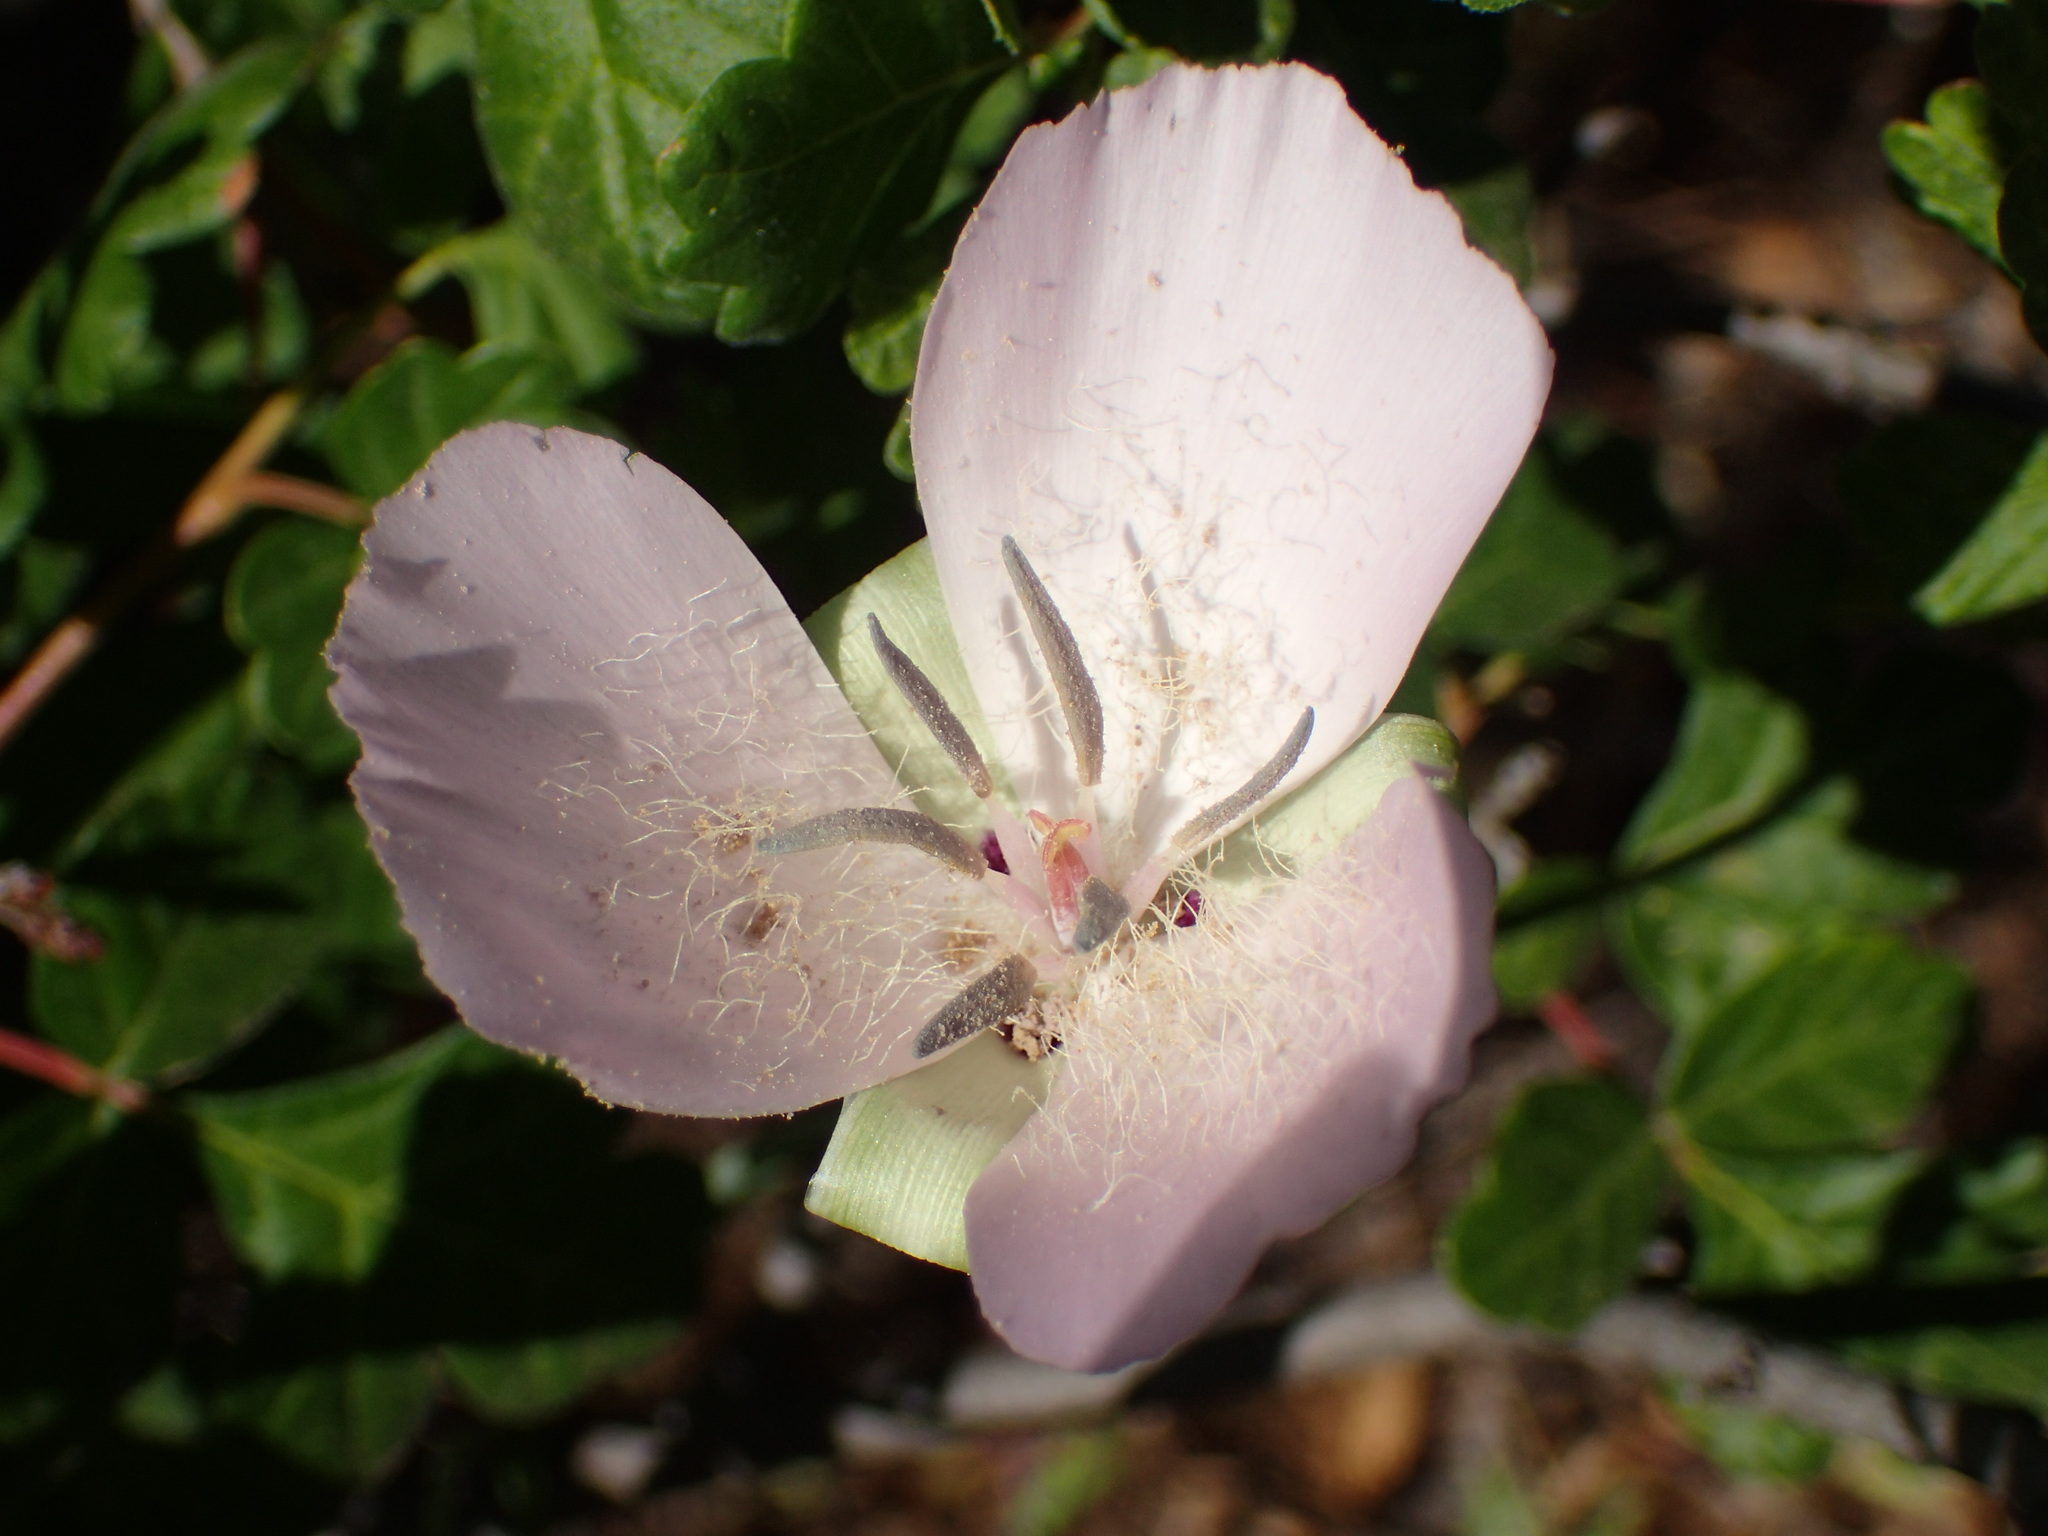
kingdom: Plantae
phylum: Tracheophyta
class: Liliopsida
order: Liliales
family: Liliaceae
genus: Calochortus
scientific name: Calochortus splendens
